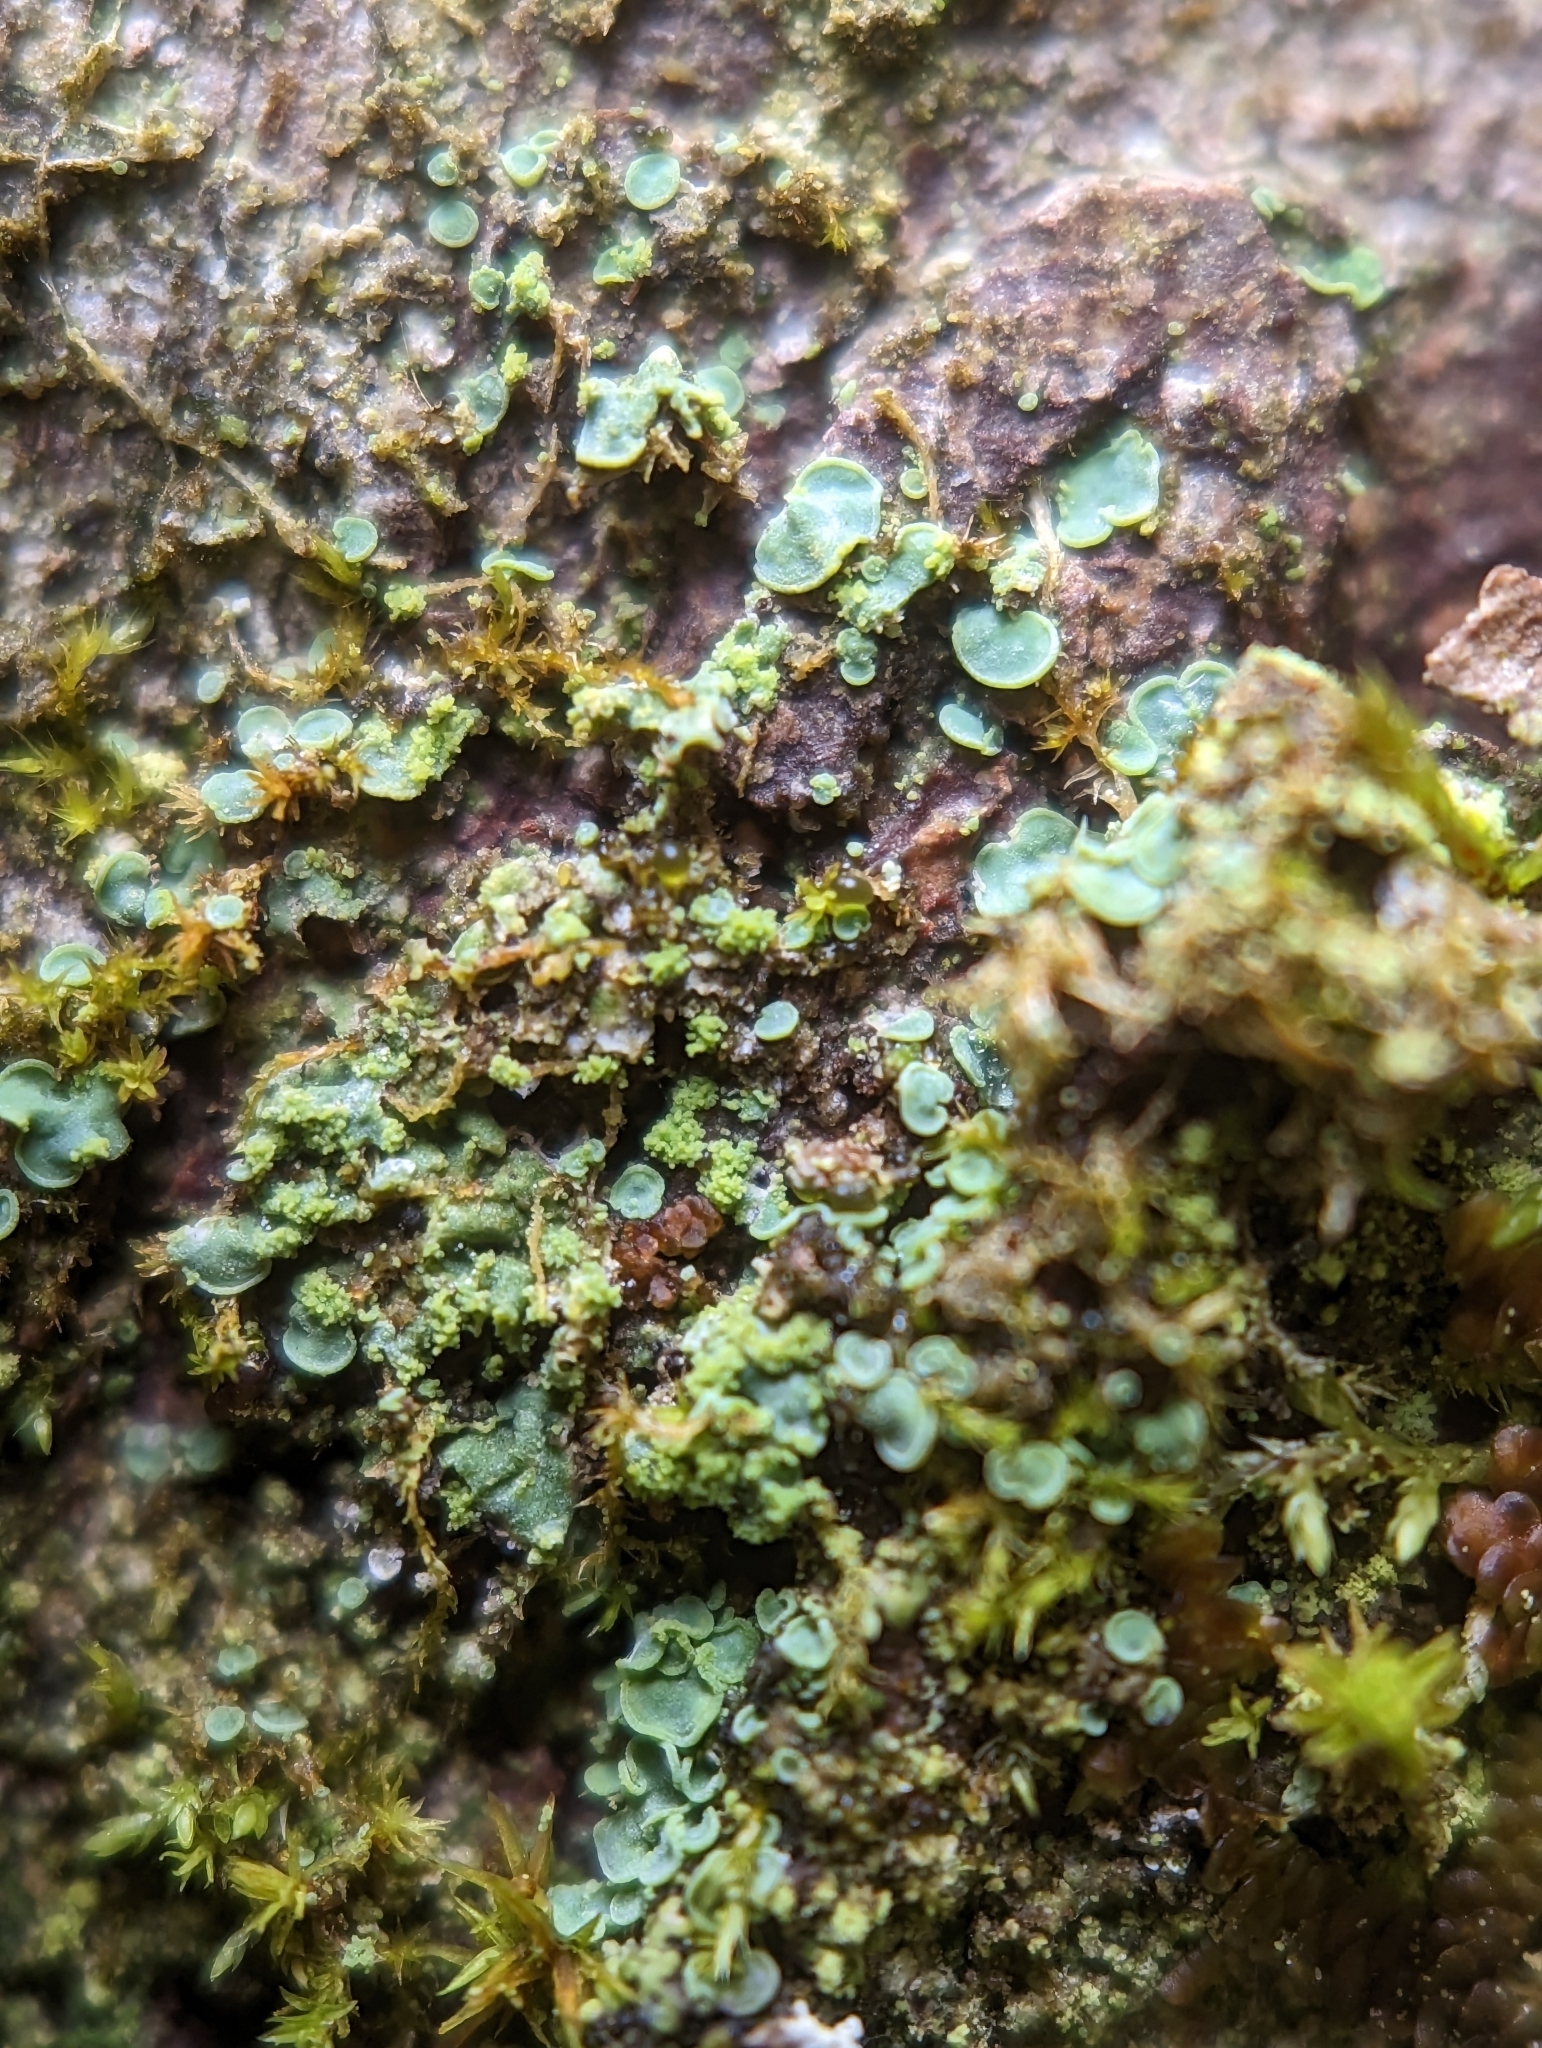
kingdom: Fungi
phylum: Ascomycota
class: Eurotiomycetes
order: Verrucariales
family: Verrucariaceae
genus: Normandina
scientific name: Normandina pulchella
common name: Elf ears lichen
